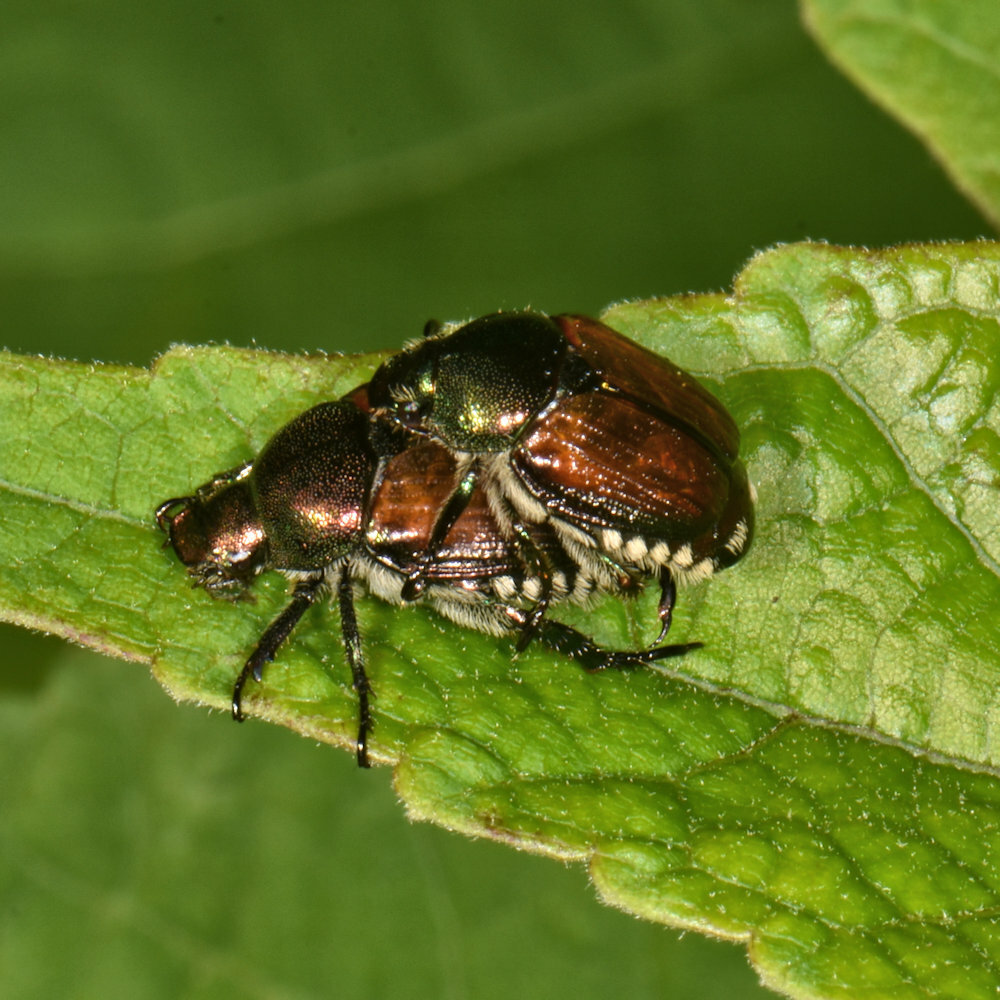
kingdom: Animalia
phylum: Arthropoda
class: Insecta
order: Coleoptera
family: Scarabaeidae
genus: Popillia
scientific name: Popillia japonica
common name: Japanese beetle
